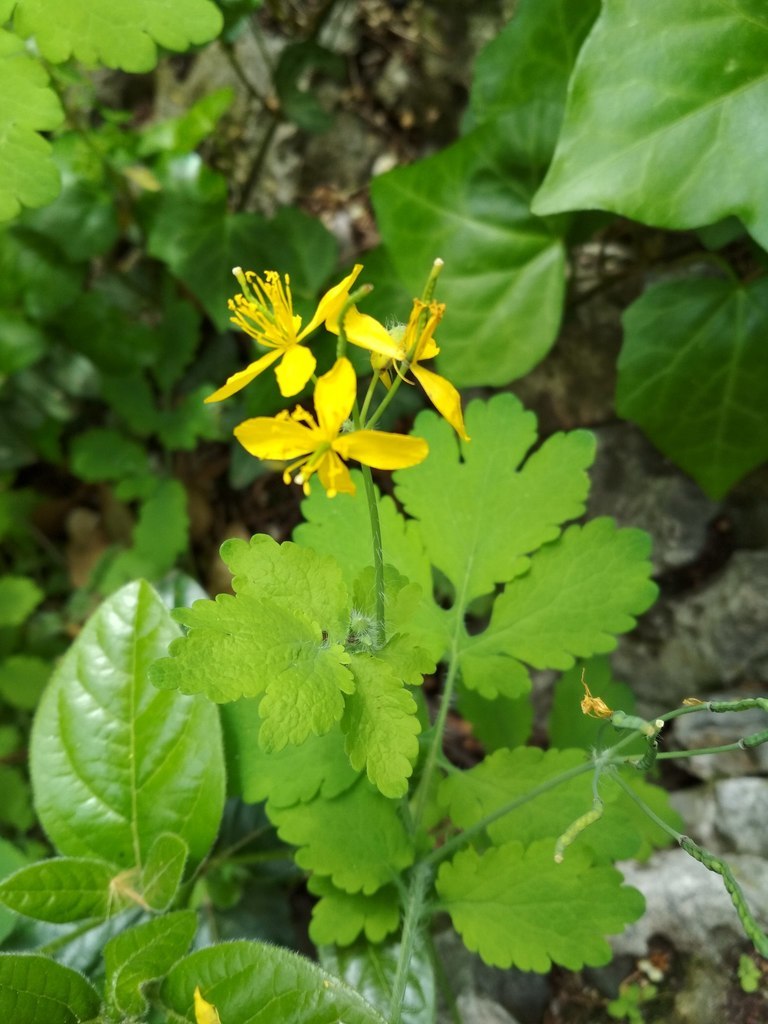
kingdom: Plantae
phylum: Tracheophyta
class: Magnoliopsida
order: Ranunculales
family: Papaveraceae
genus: Chelidonium
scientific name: Chelidonium majus
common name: Greater celandine
